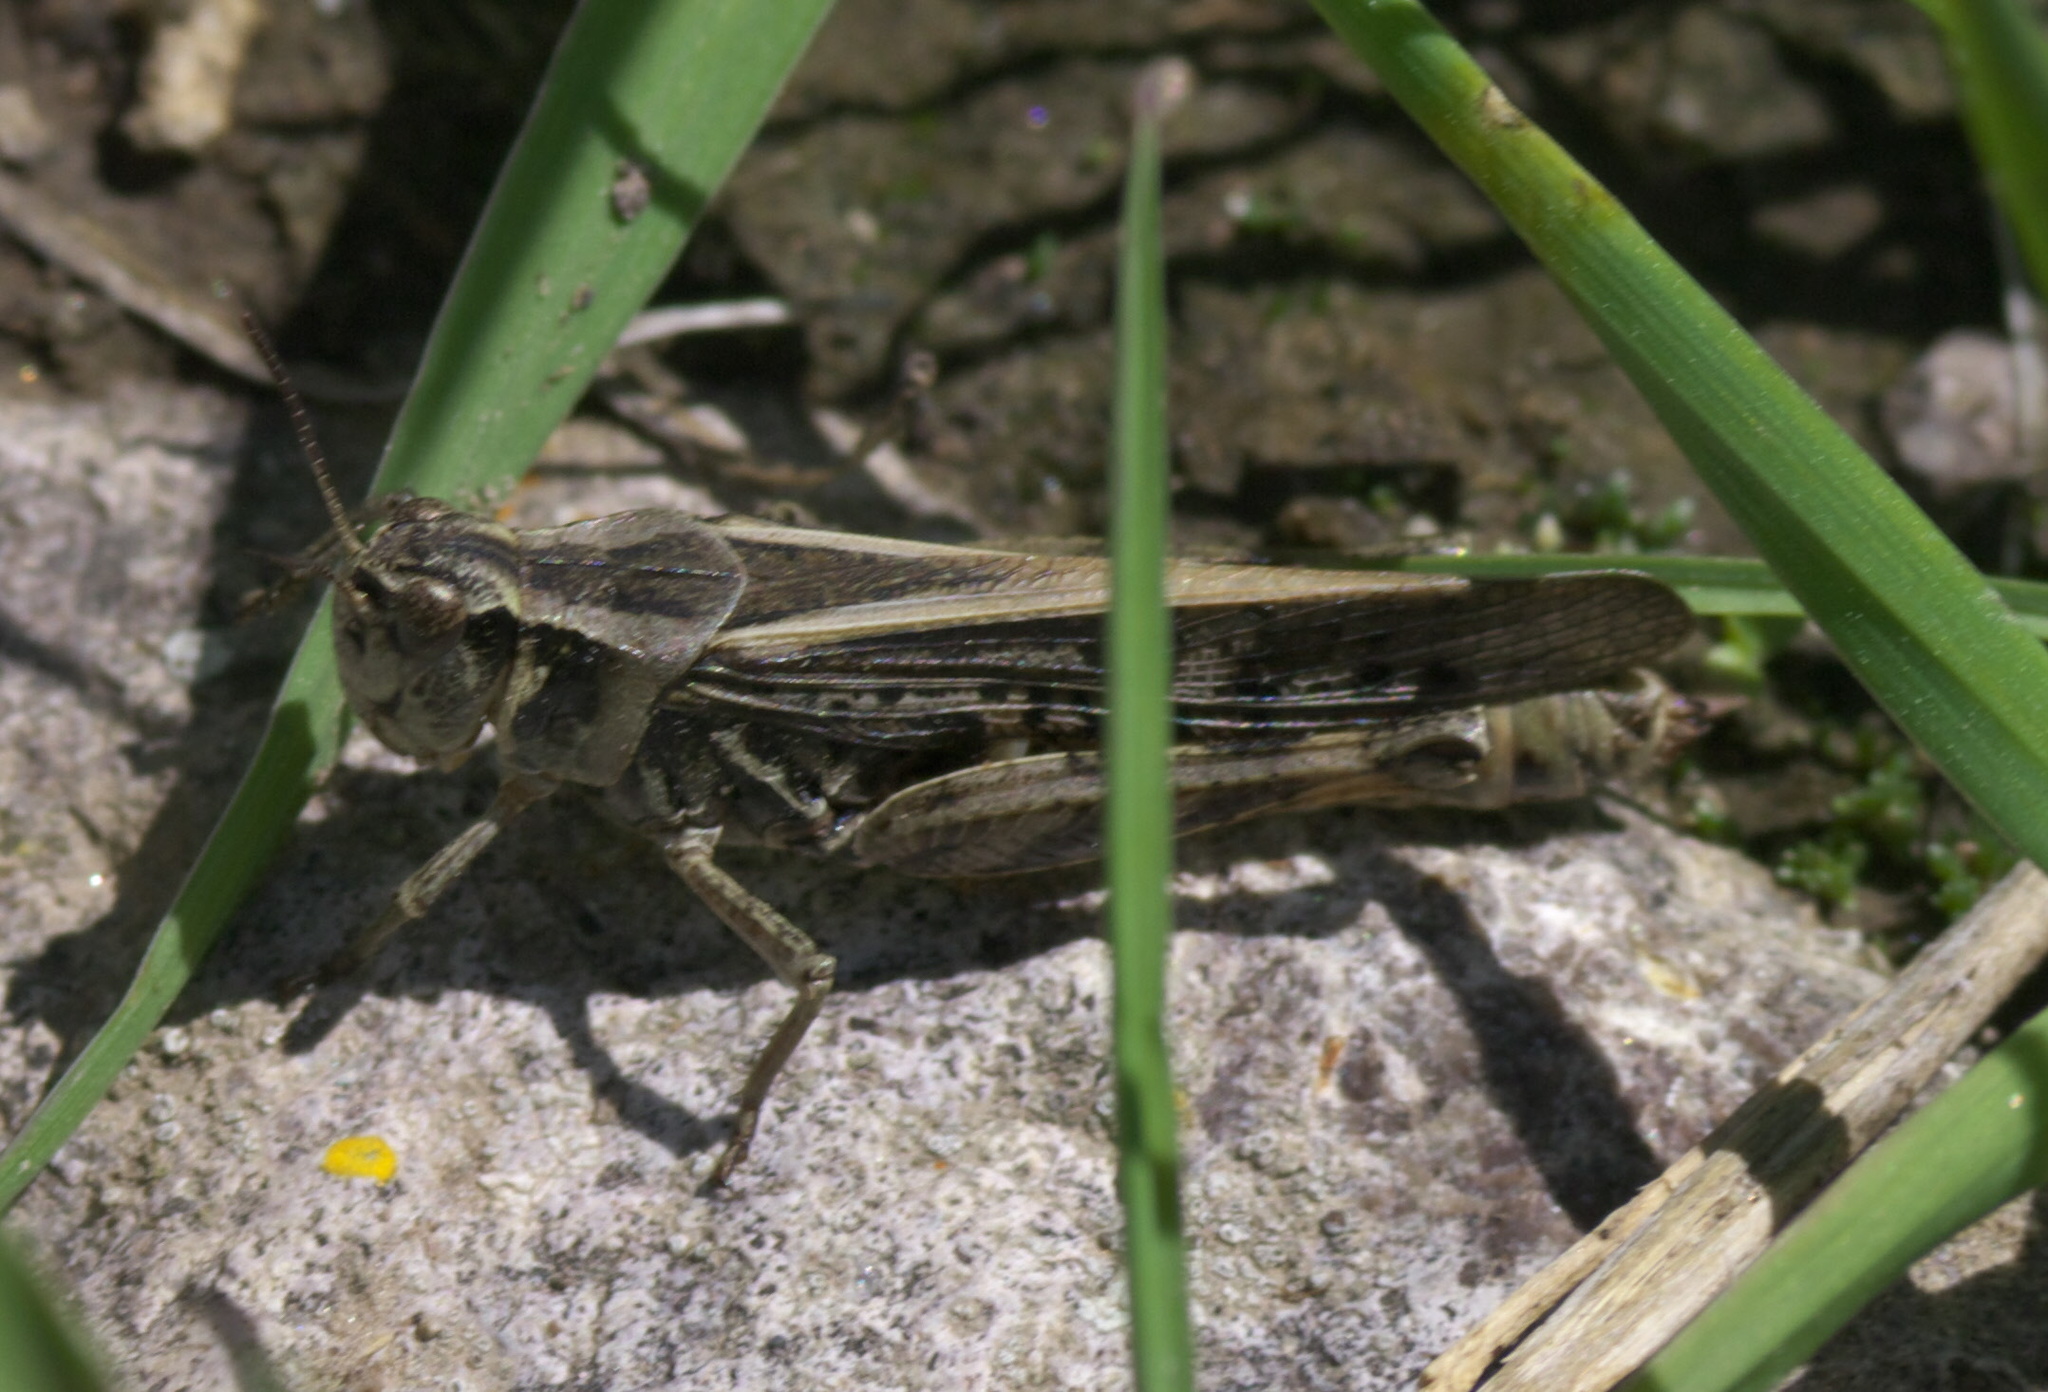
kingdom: Animalia
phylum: Arthropoda
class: Insecta
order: Orthoptera
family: Acrididae
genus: Camnula
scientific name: Camnula pellucida
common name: Clear-winged grasshopper
